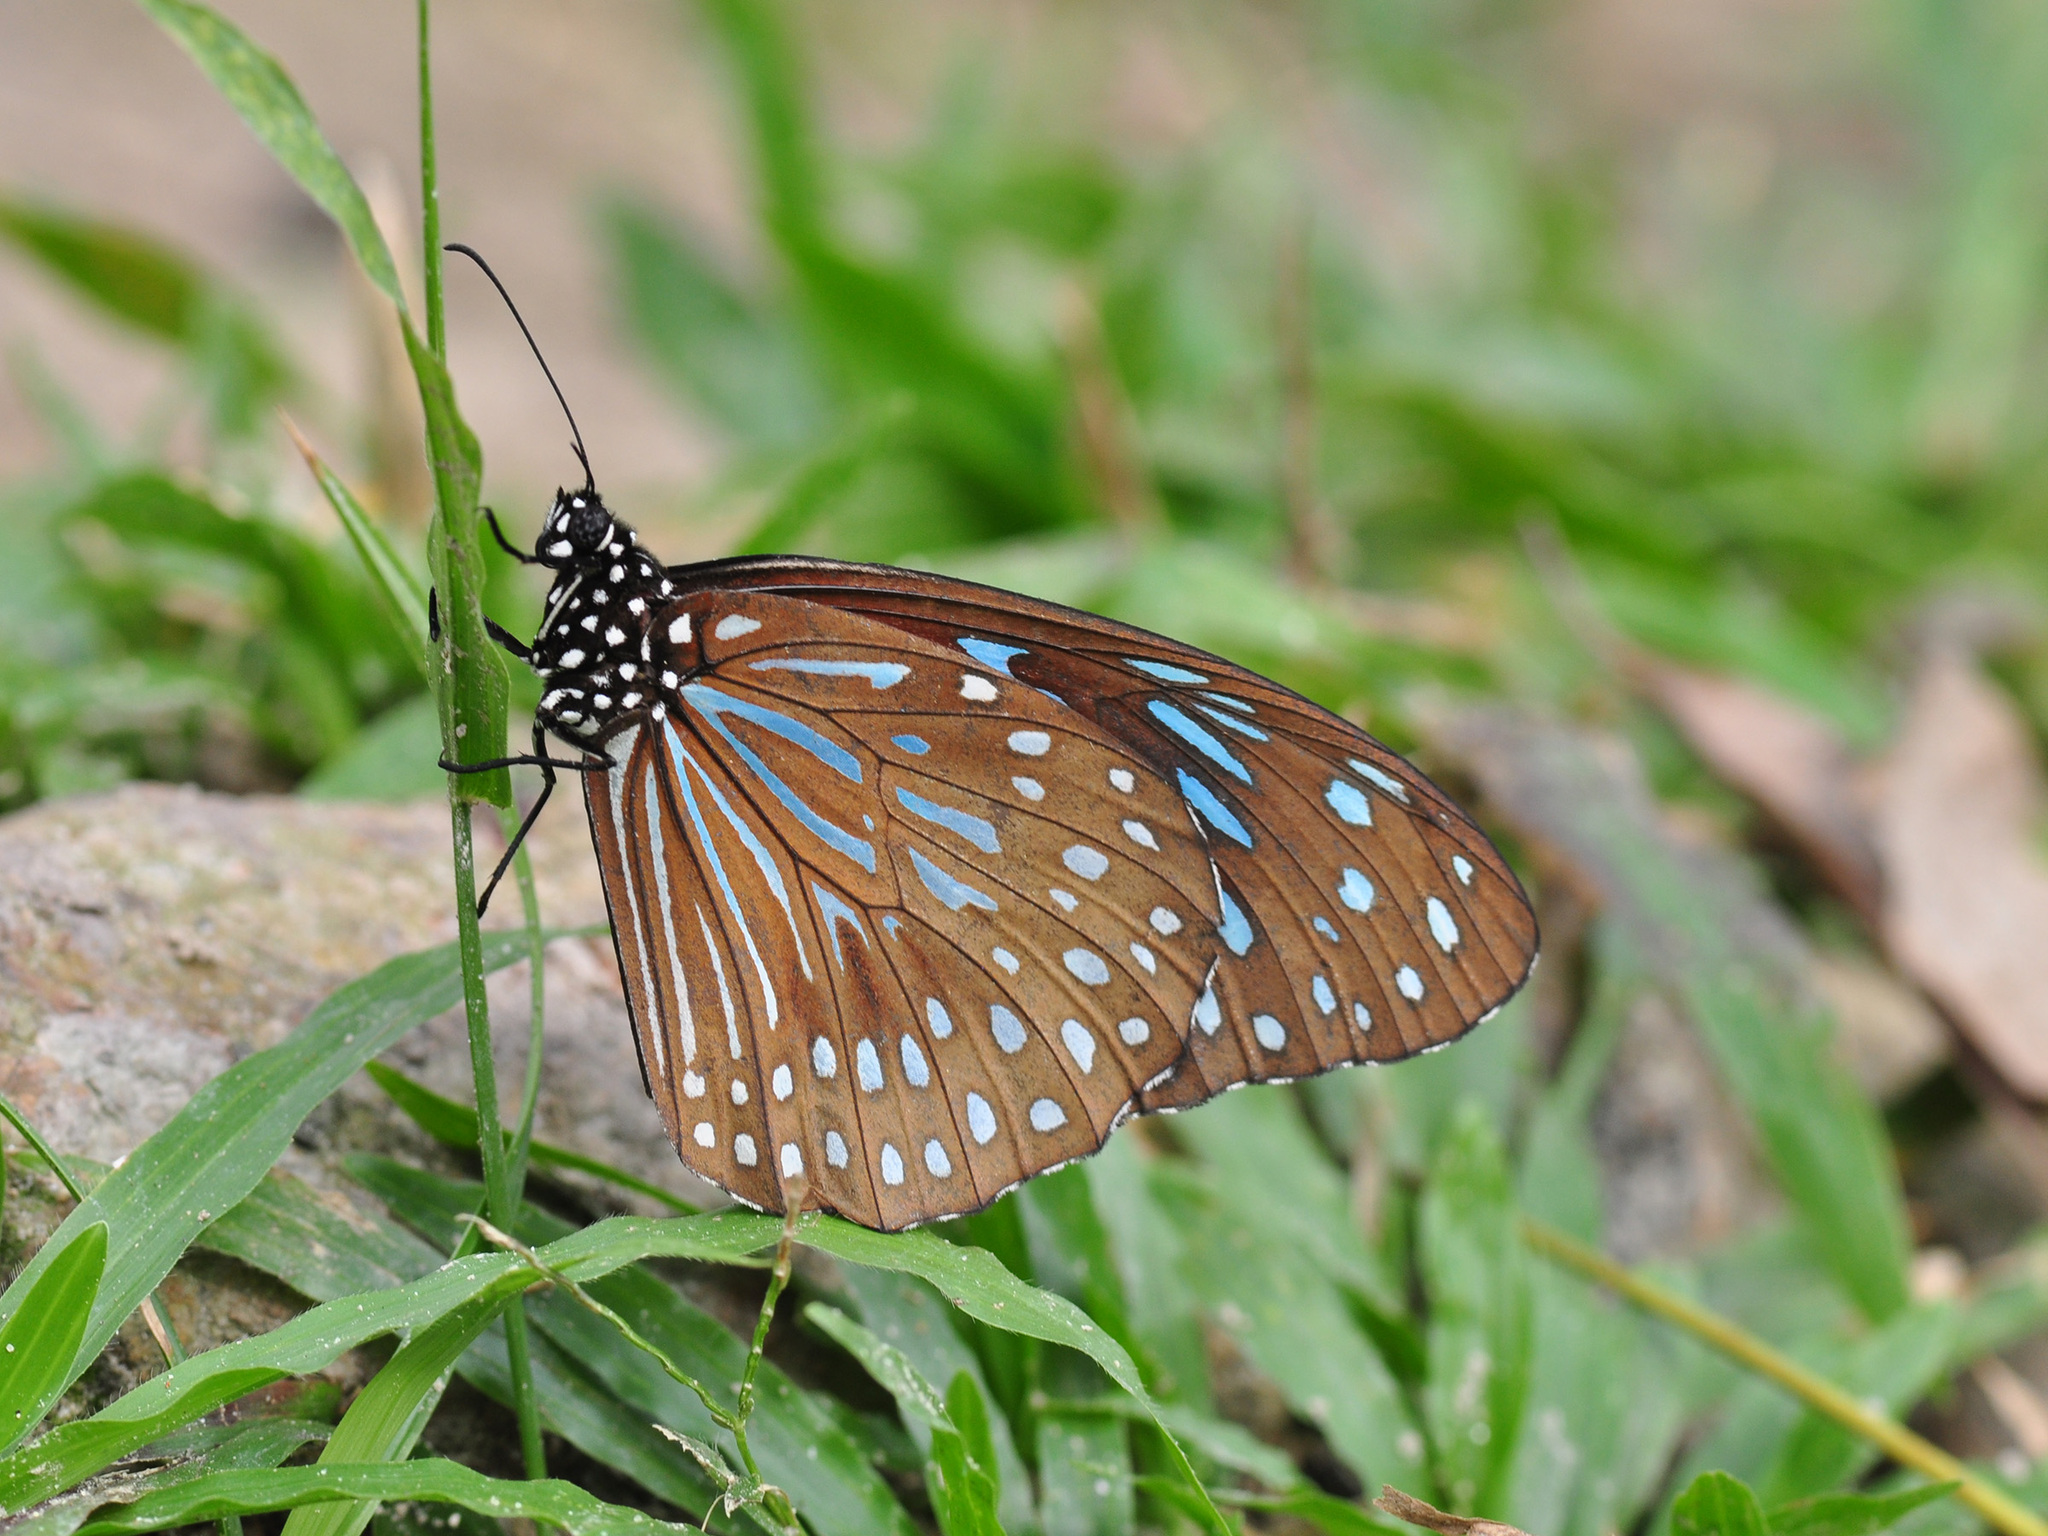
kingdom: Animalia
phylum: Arthropoda
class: Insecta
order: Lepidoptera
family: Nymphalidae
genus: Tirumala
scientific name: Tirumala septentrionis
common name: Dark blue tiger butterfly
